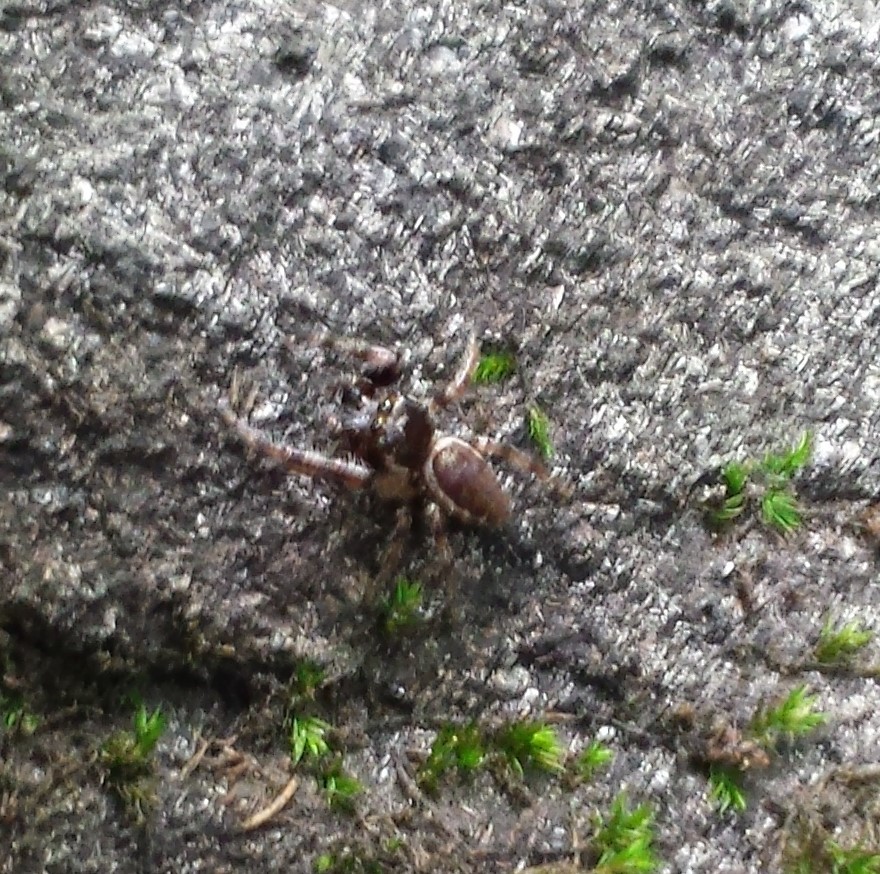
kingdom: Animalia
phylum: Arthropoda
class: Arachnida
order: Araneae
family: Salticidae
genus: Eris
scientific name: Eris militaris
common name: Bronze jumper
